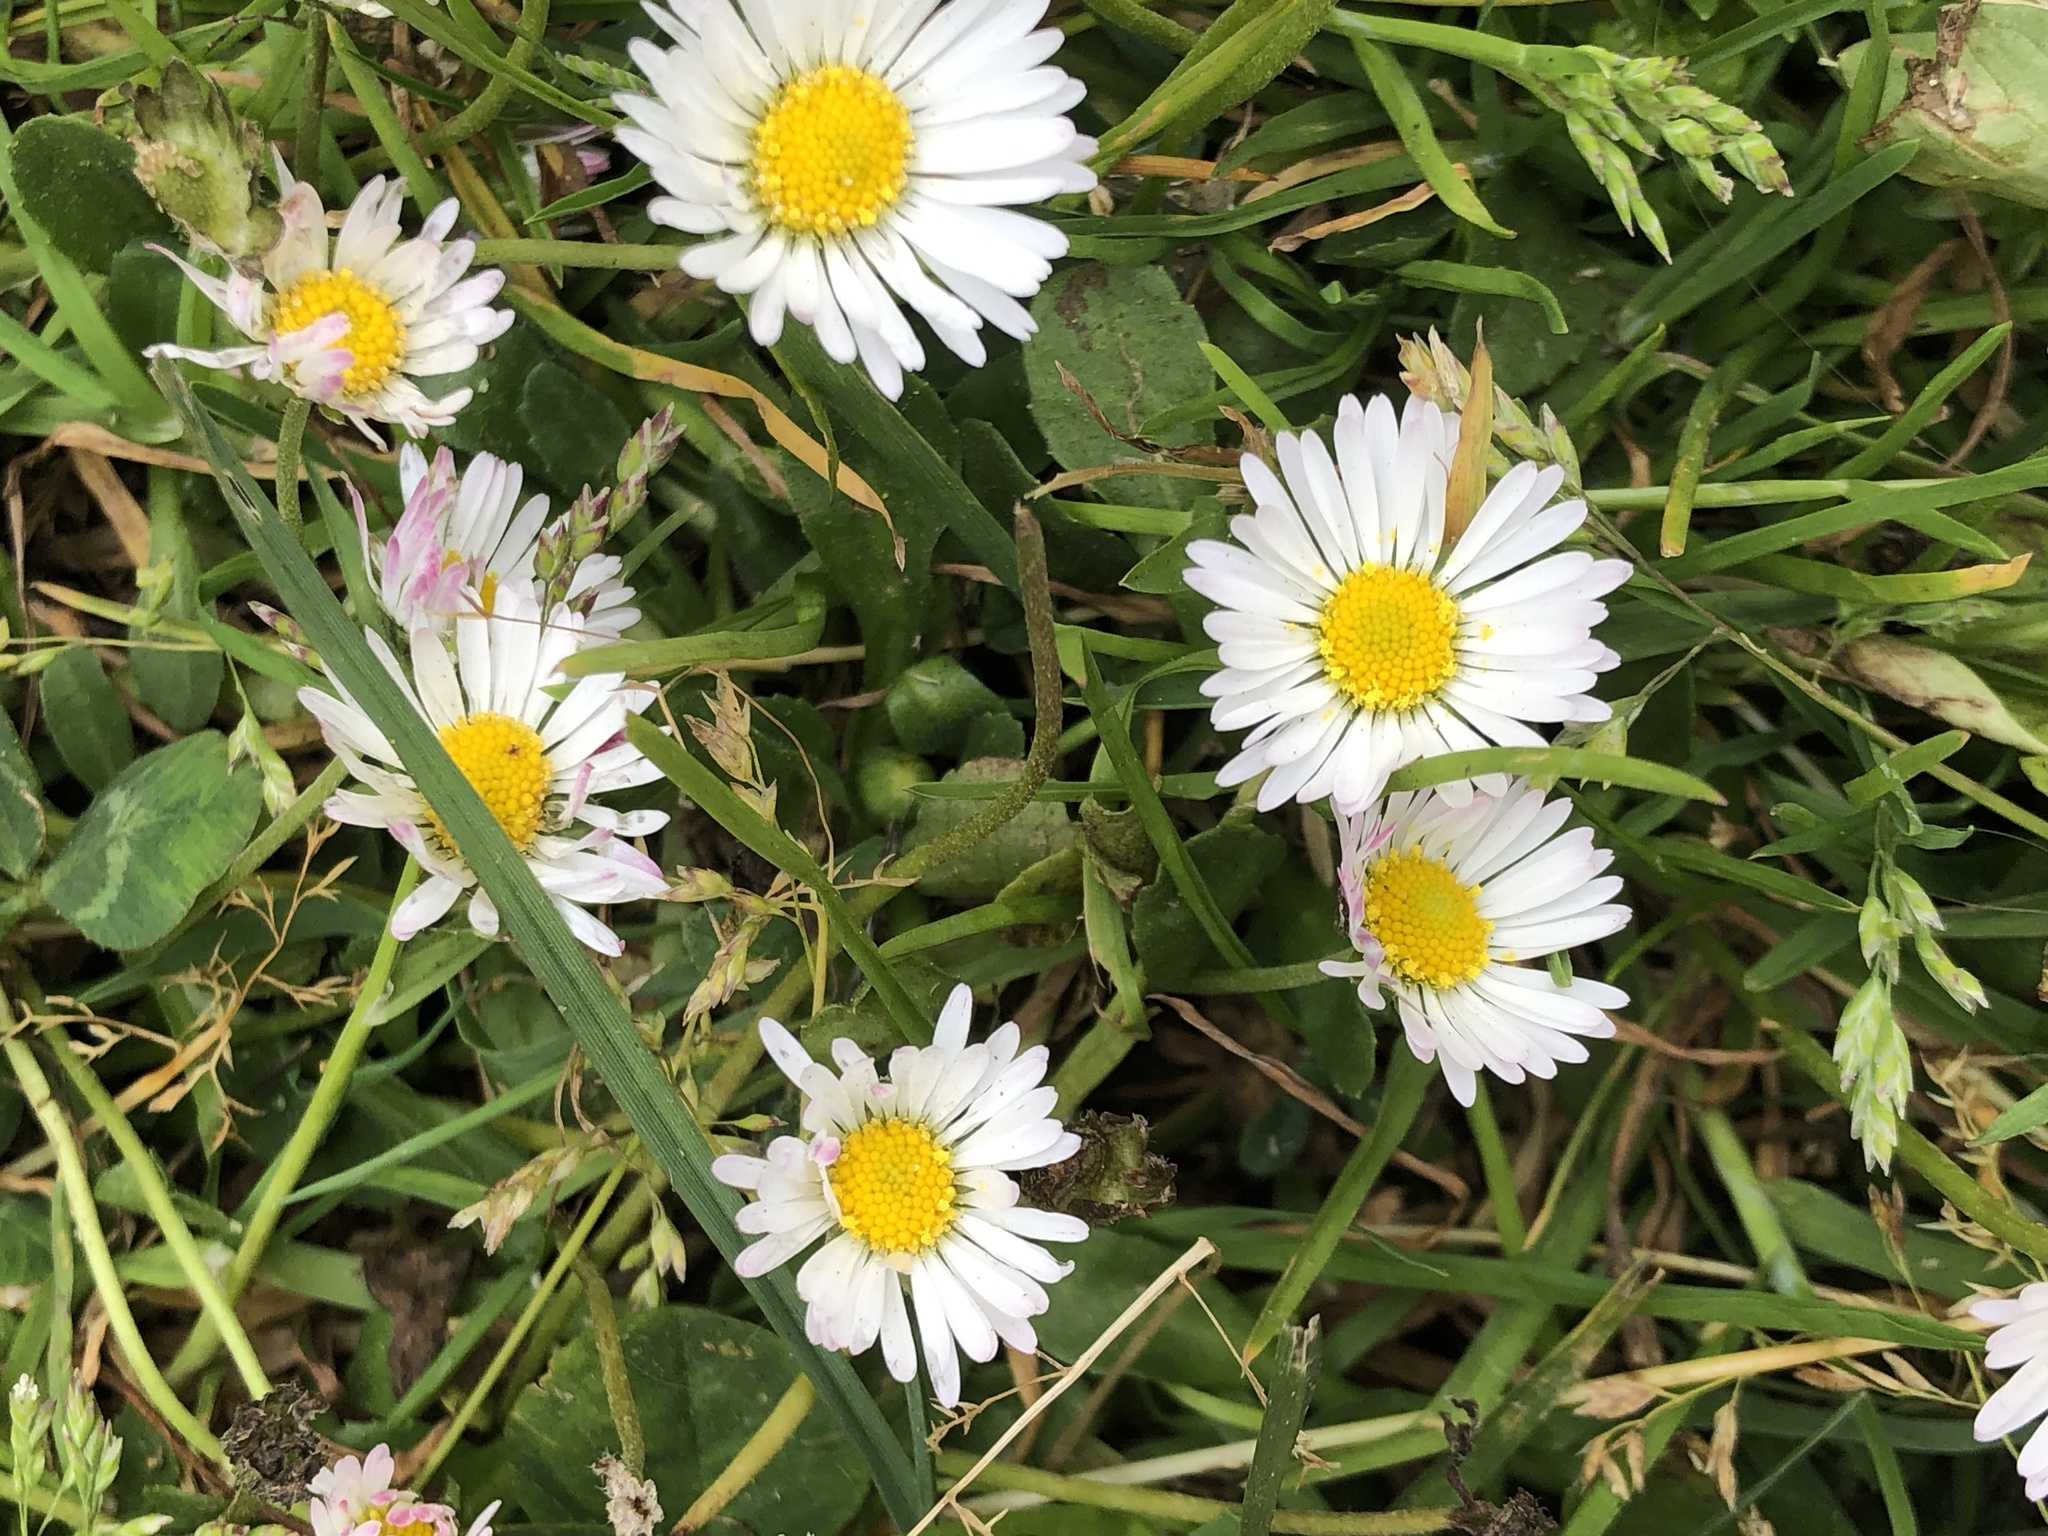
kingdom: Plantae
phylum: Tracheophyta
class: Magnoliopsida
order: Asterales
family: Asteraceae
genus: Bellis
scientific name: Bellis perennis
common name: Lawndaisy
